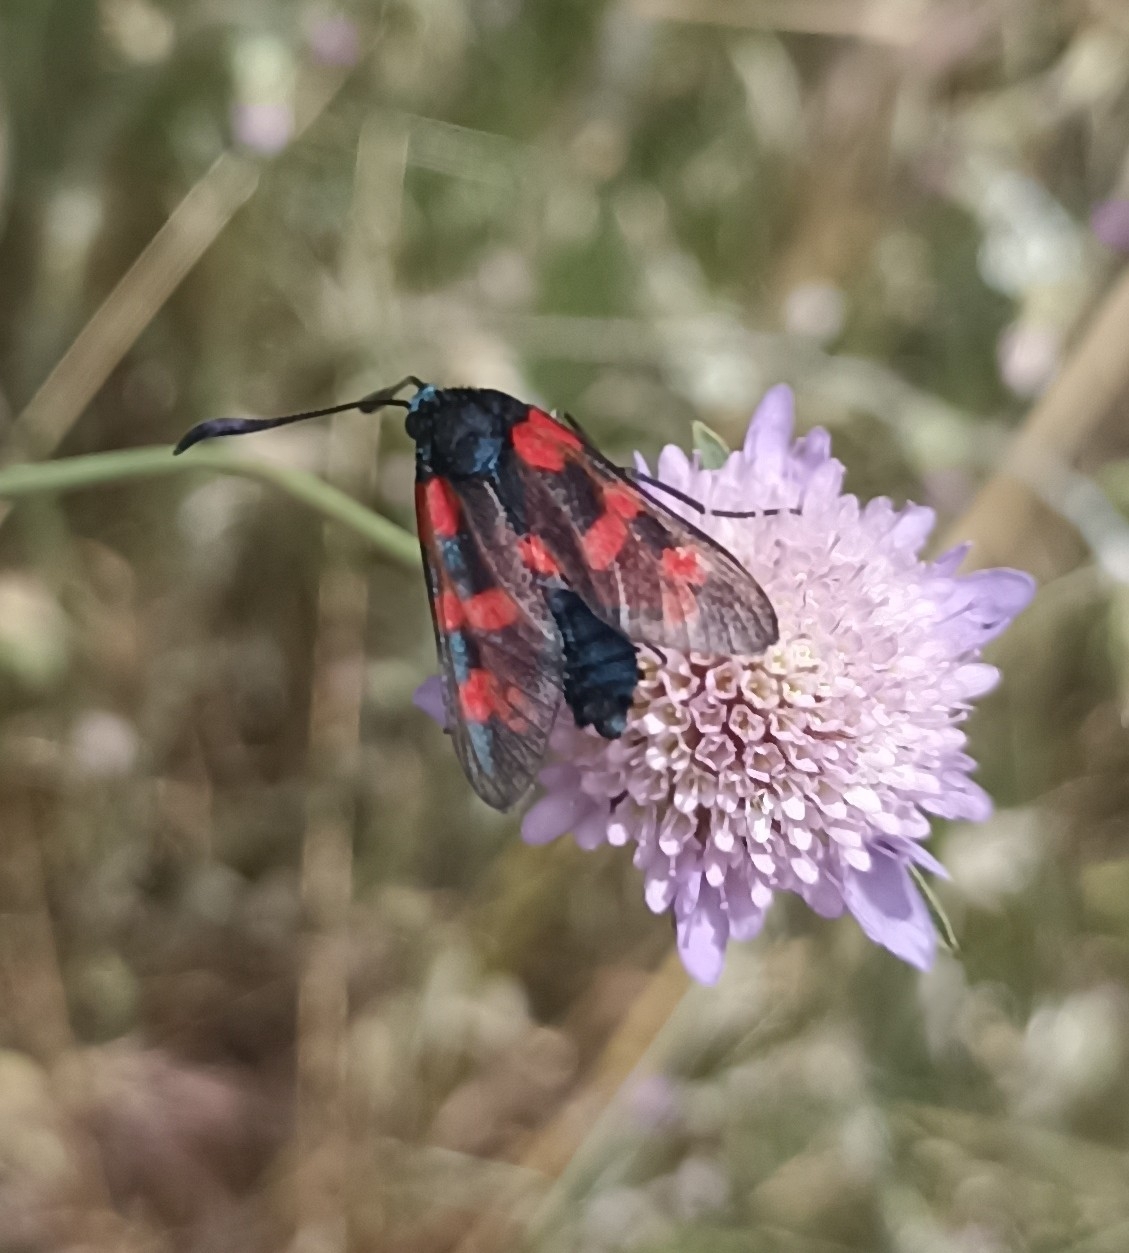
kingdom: Animalia
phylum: Arthropoda
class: Insecta
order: Lepidoptera
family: Zygaenidae
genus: Zygaena
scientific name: Zygaena filipendulae
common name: Six-spot burnet
